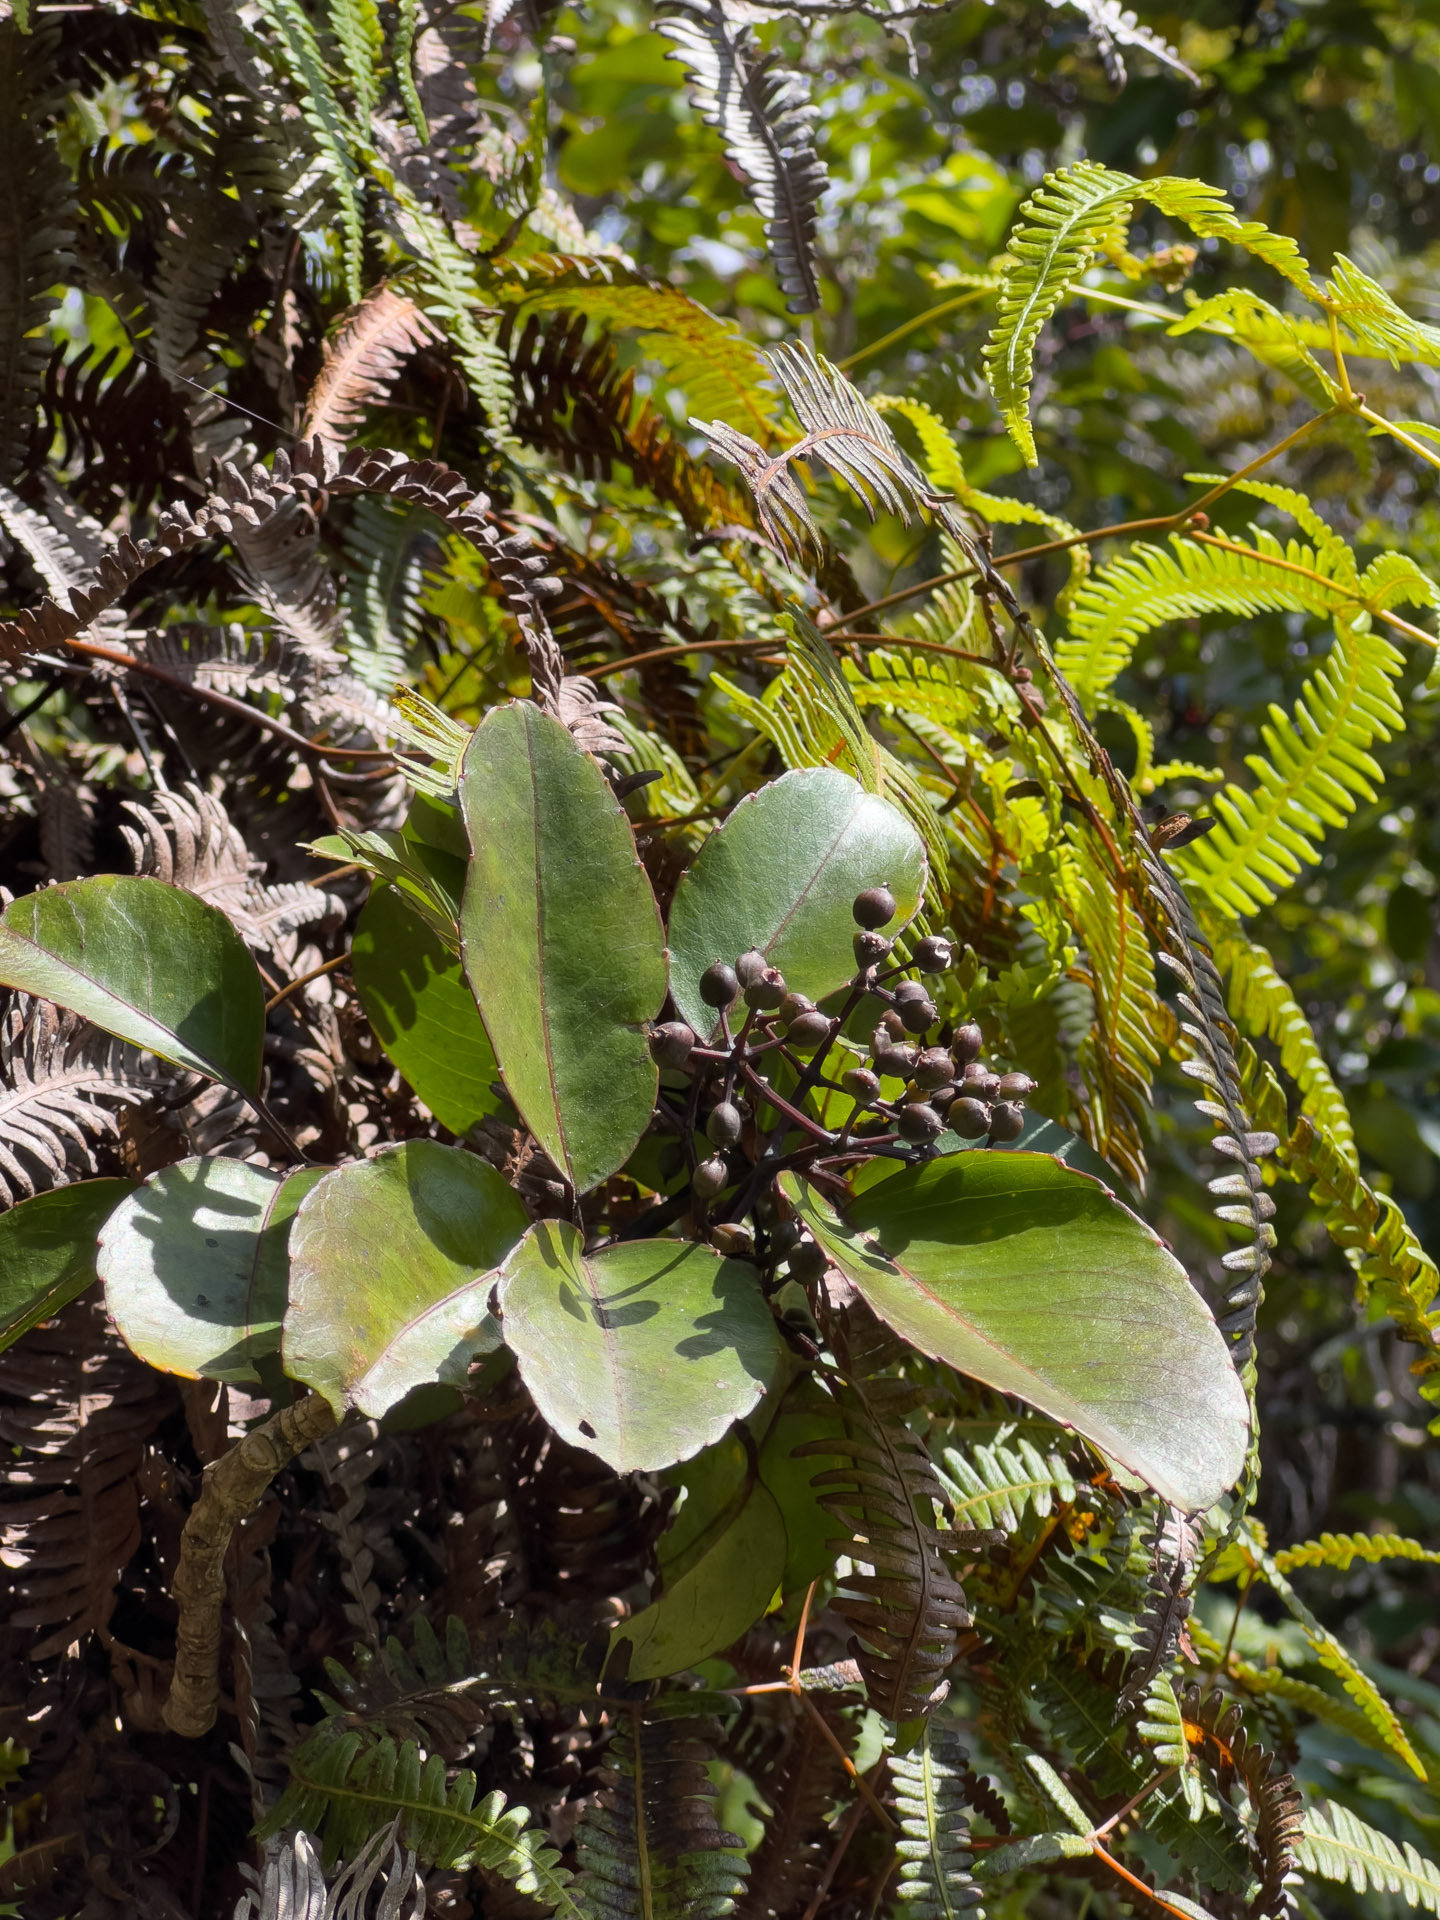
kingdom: Plantae
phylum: Tracheophyta
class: Magnoliopsida
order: Apiales
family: Araliaceae
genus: Cheirodendron
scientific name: Cheirodendron trigynum
